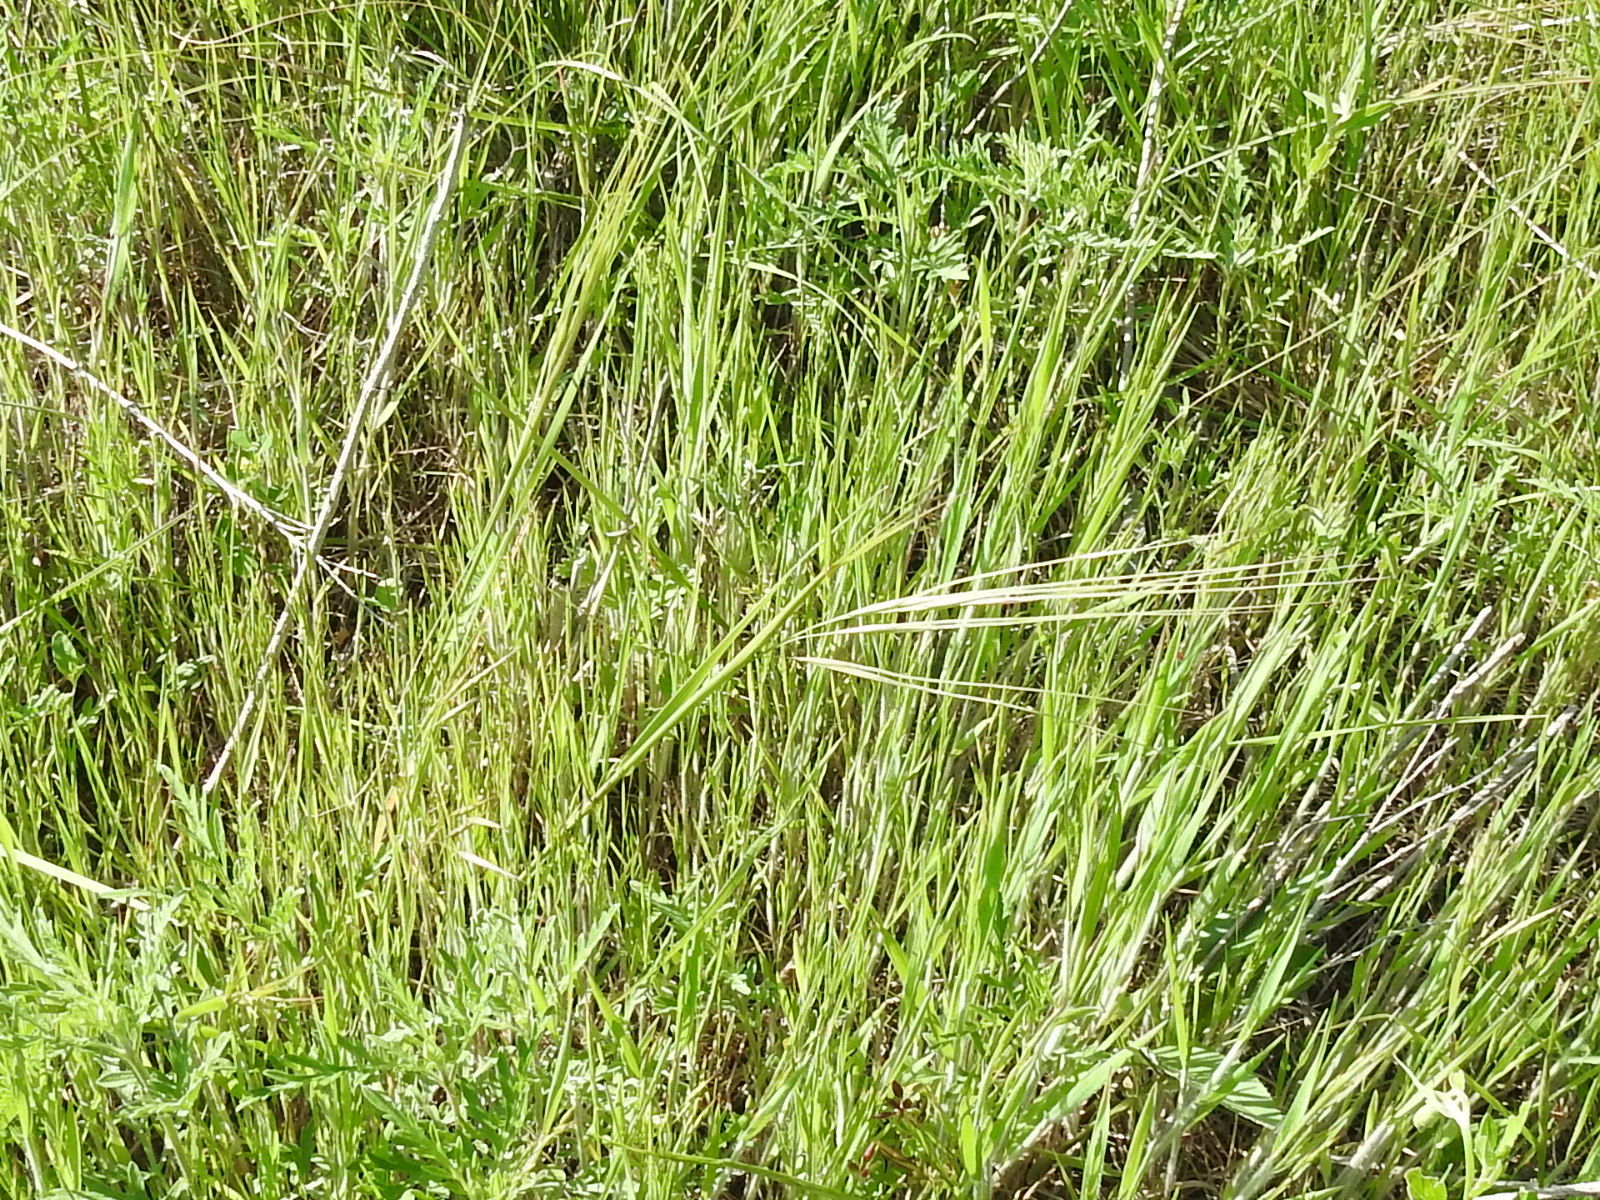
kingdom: Plantae
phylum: Tracheophyta
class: Liliopsida
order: Poales
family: Poaceae
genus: Nassella
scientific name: Nassella leucotricha
